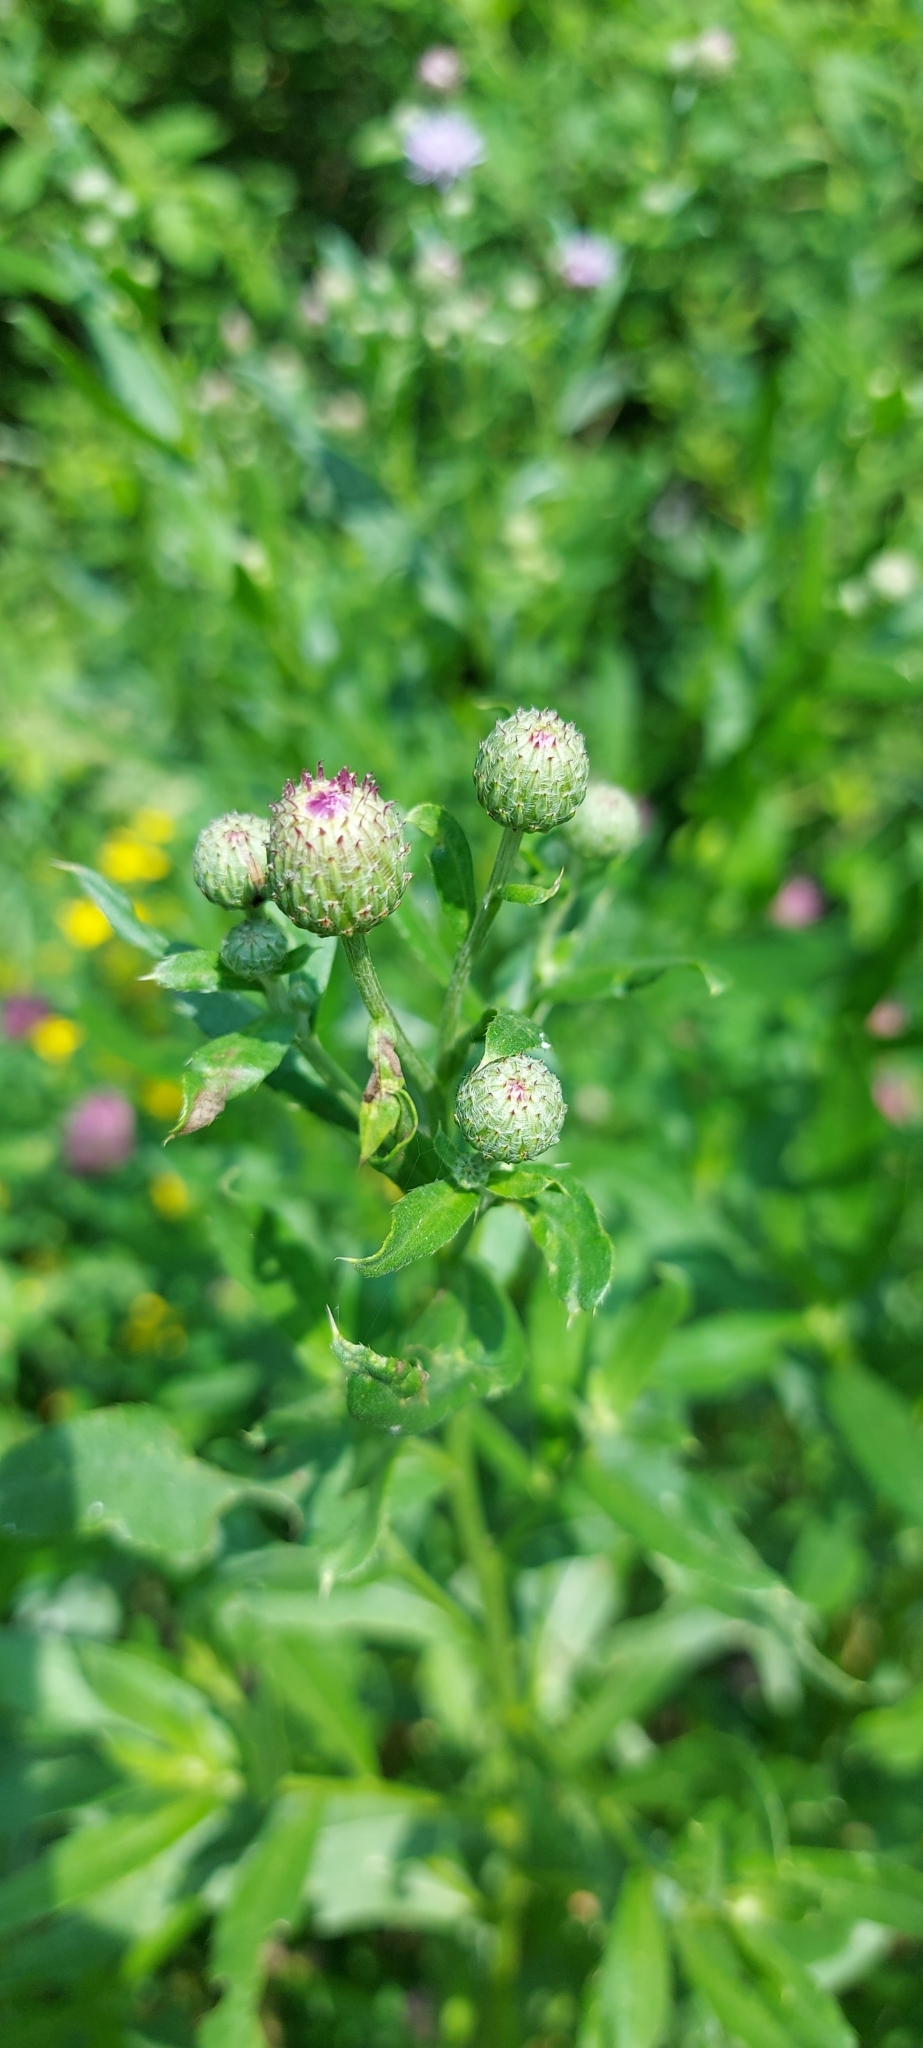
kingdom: Plantae
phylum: Tracheophyta
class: Magnoliopsida
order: Asterales
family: Asteraceae
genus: Cirsium
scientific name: Cirsium arvense
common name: Creeping thistle
